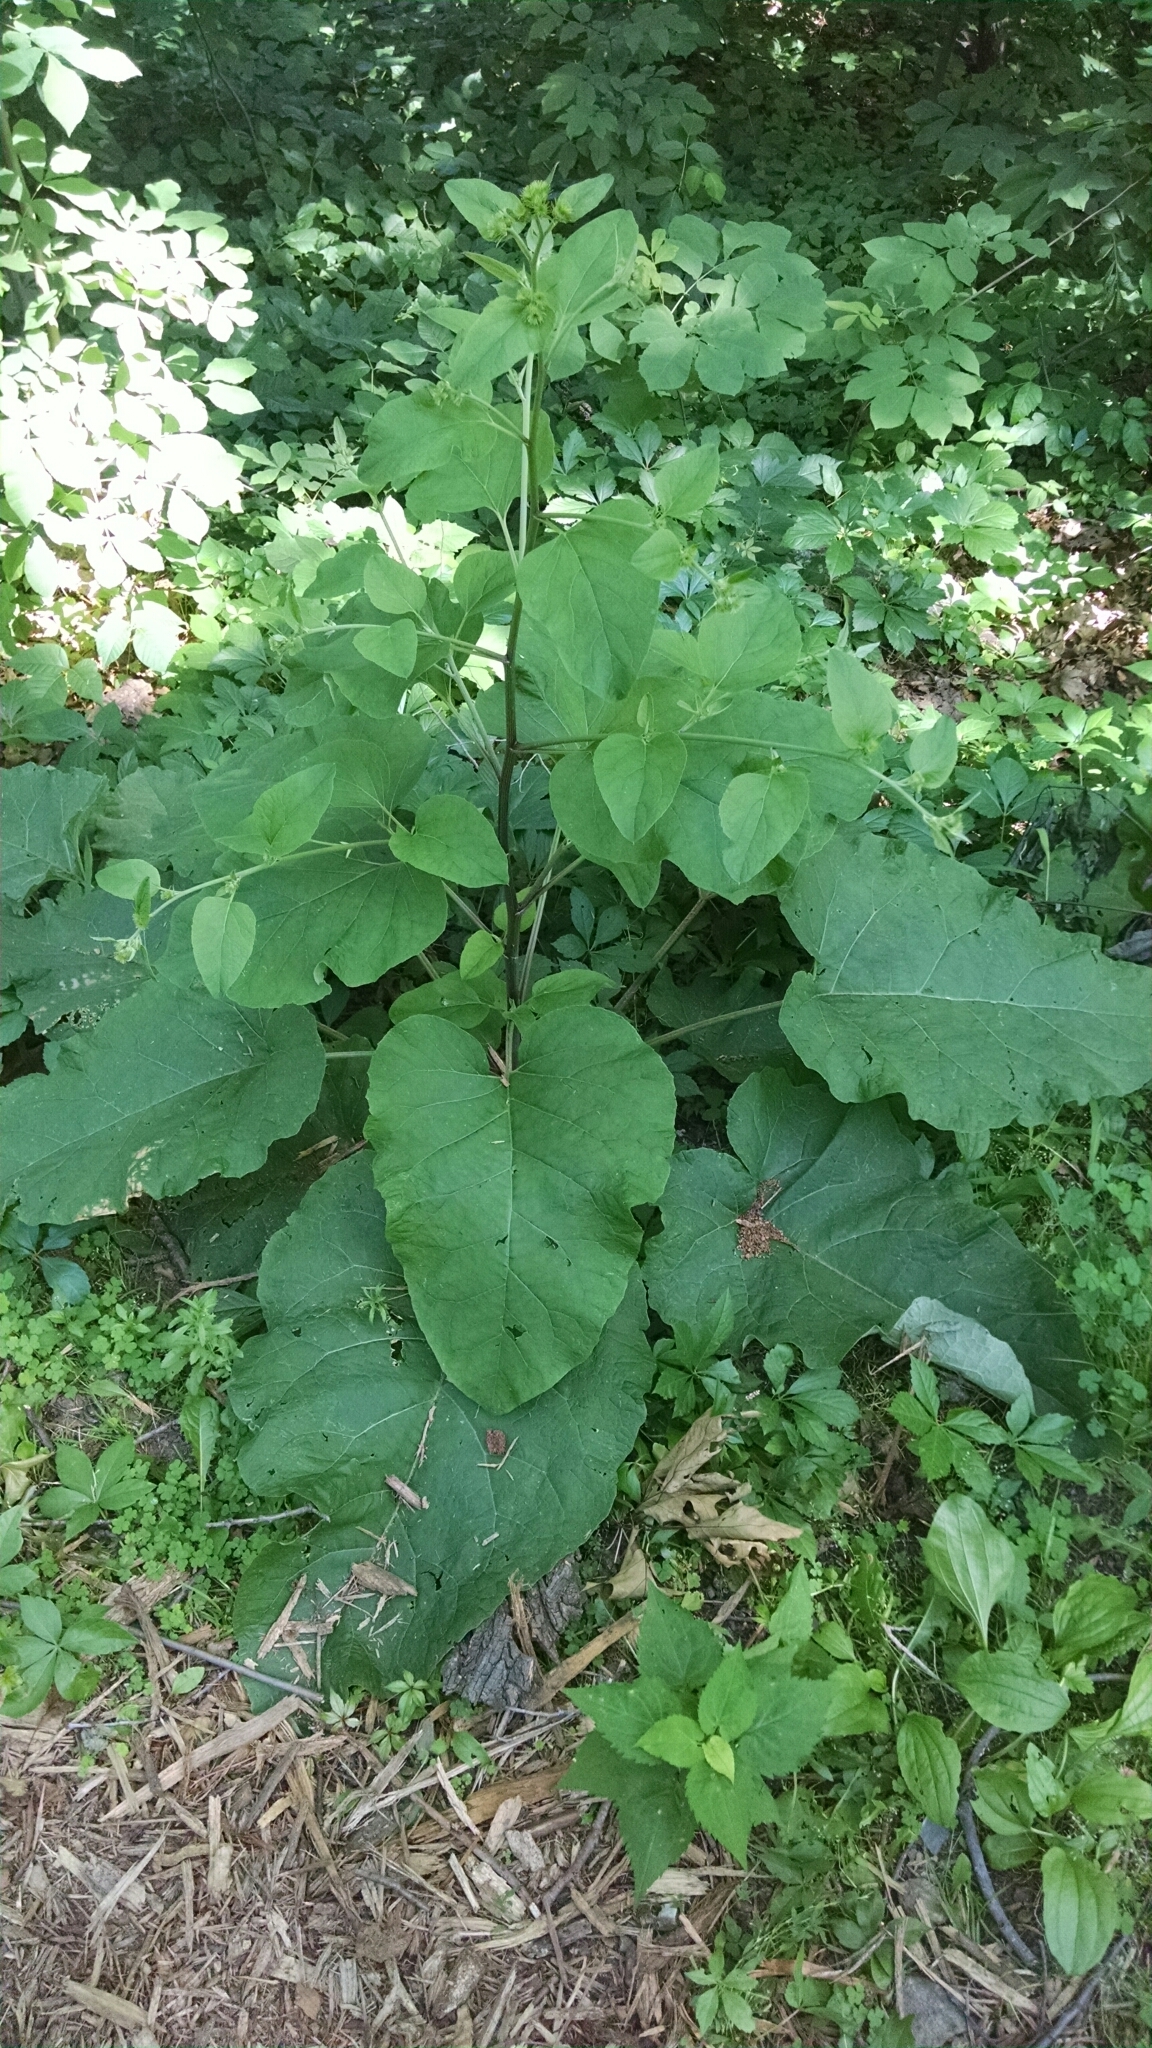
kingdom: Plantae
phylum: Tracheophyta
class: Magnoliopsida
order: Asterales
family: Asteraceae
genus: Arctium
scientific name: Arctium
